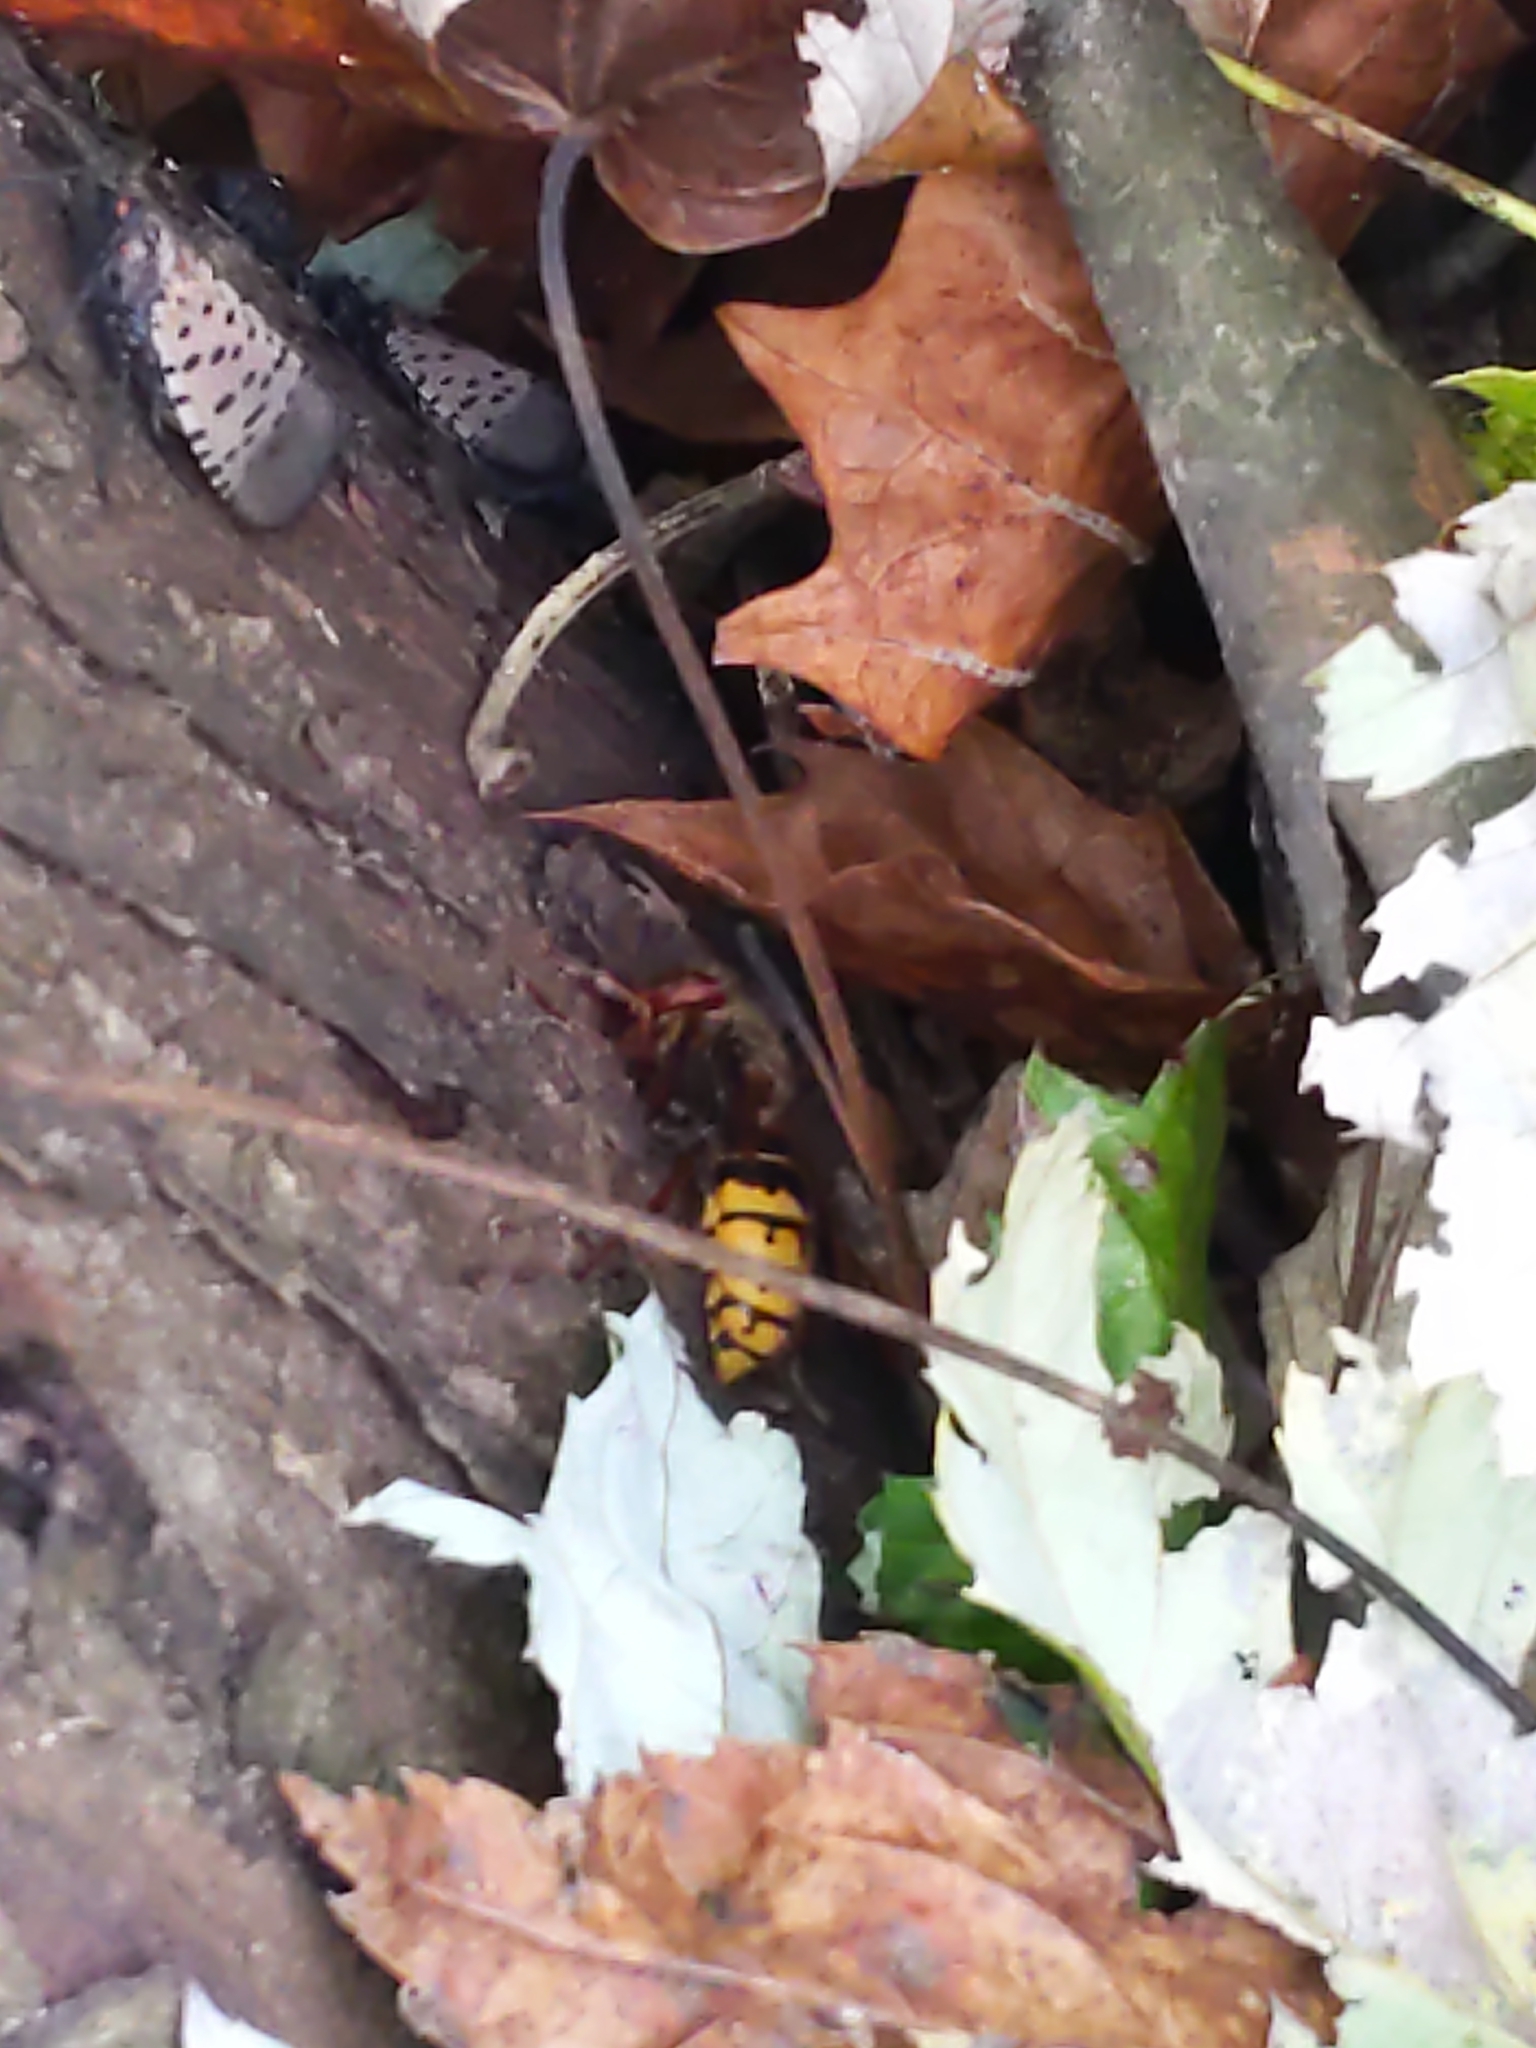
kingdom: Animalia
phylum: Arthropoda
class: Insecta
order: Hymenoptera
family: Vespidae
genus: Vespa
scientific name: Vespa crabro
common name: Hornet
